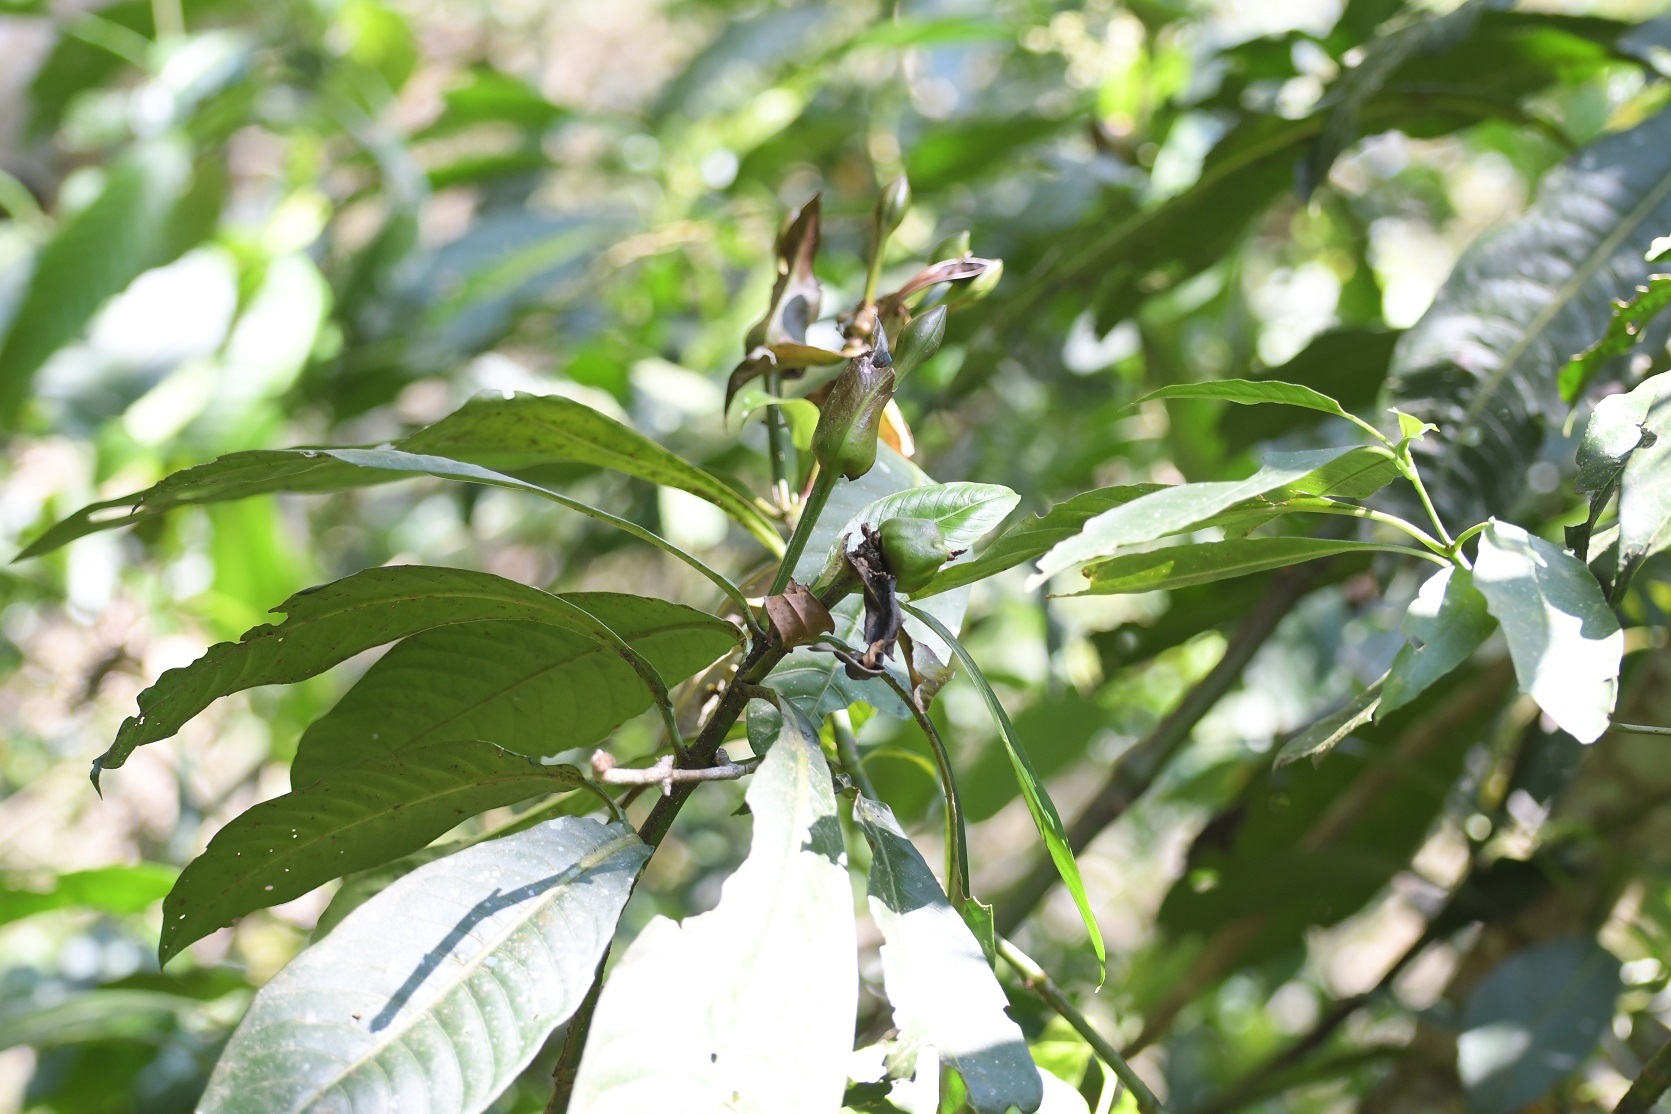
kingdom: Plantae
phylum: Tracheophyta
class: Magnoliopsida
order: Lamiales
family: Acanthaceae
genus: Justicia
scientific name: Justicia borrerae
